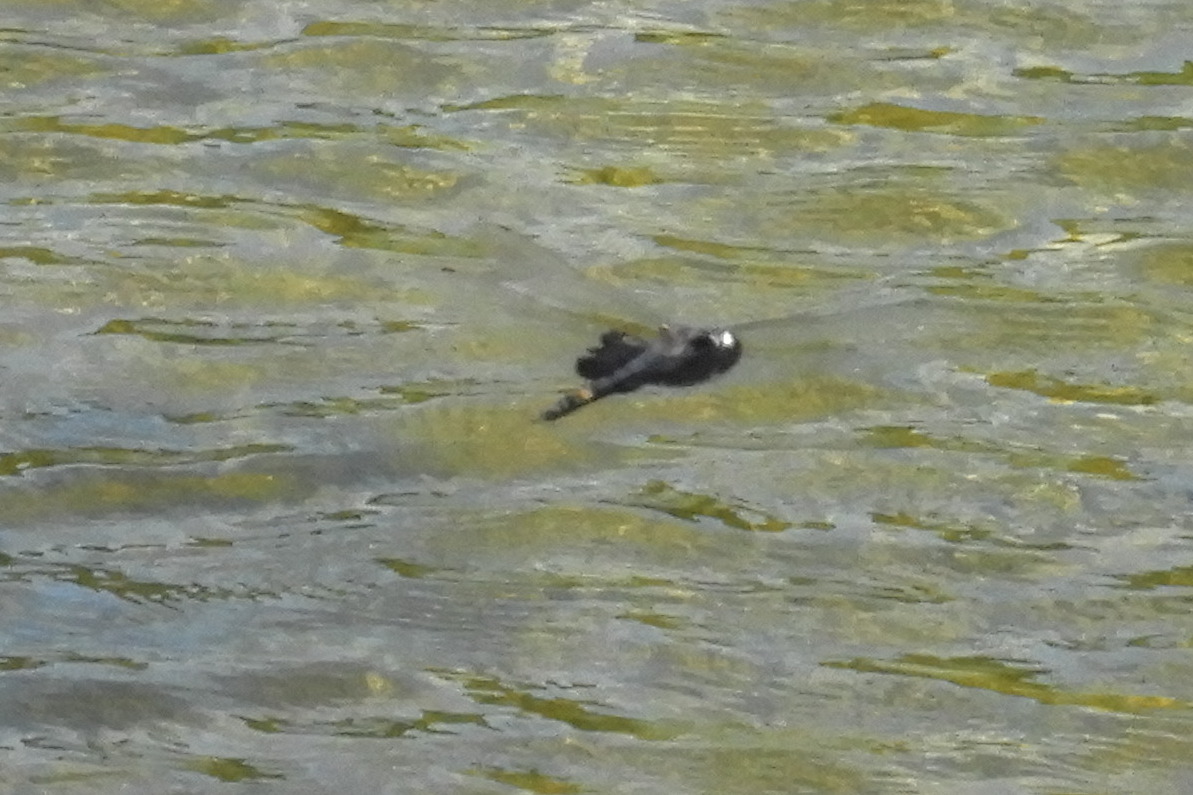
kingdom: Animalia
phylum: Arthropoda
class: Insecta
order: Odonata
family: Libellulidae
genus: Tramea
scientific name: Tramea lacerata
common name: Black saddlebags
